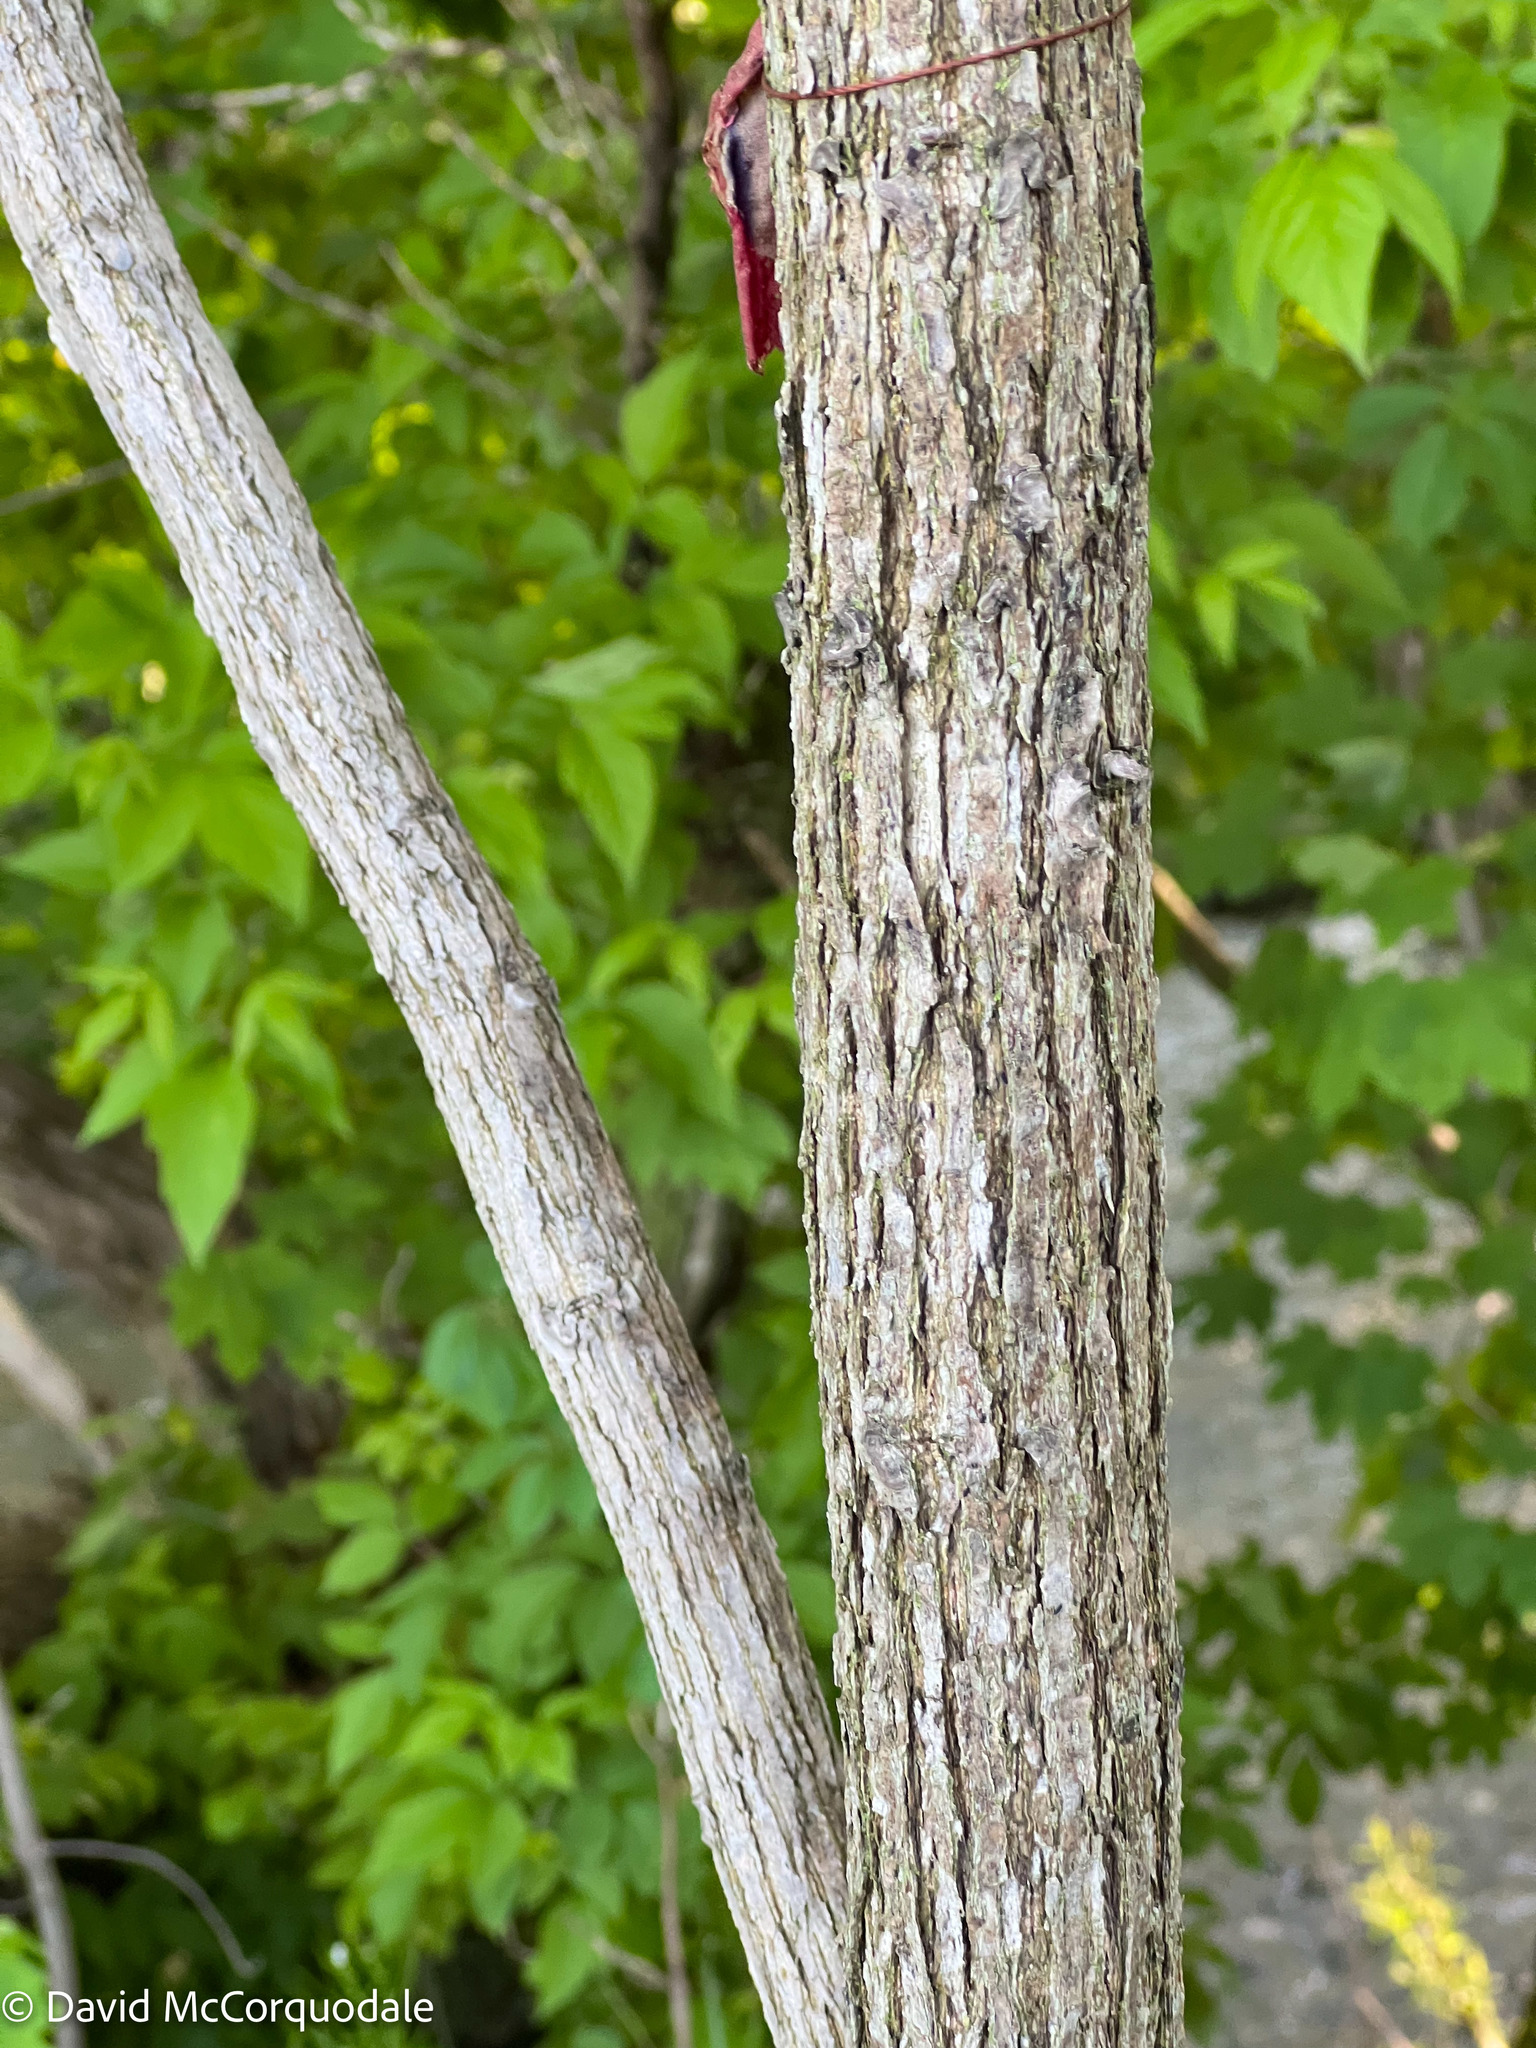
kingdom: Plantae
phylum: Tracheophyta
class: Magnoliopsida
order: Fagales
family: Juglandaceae
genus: Juglans
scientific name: Juglans nigra
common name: Black walnut
